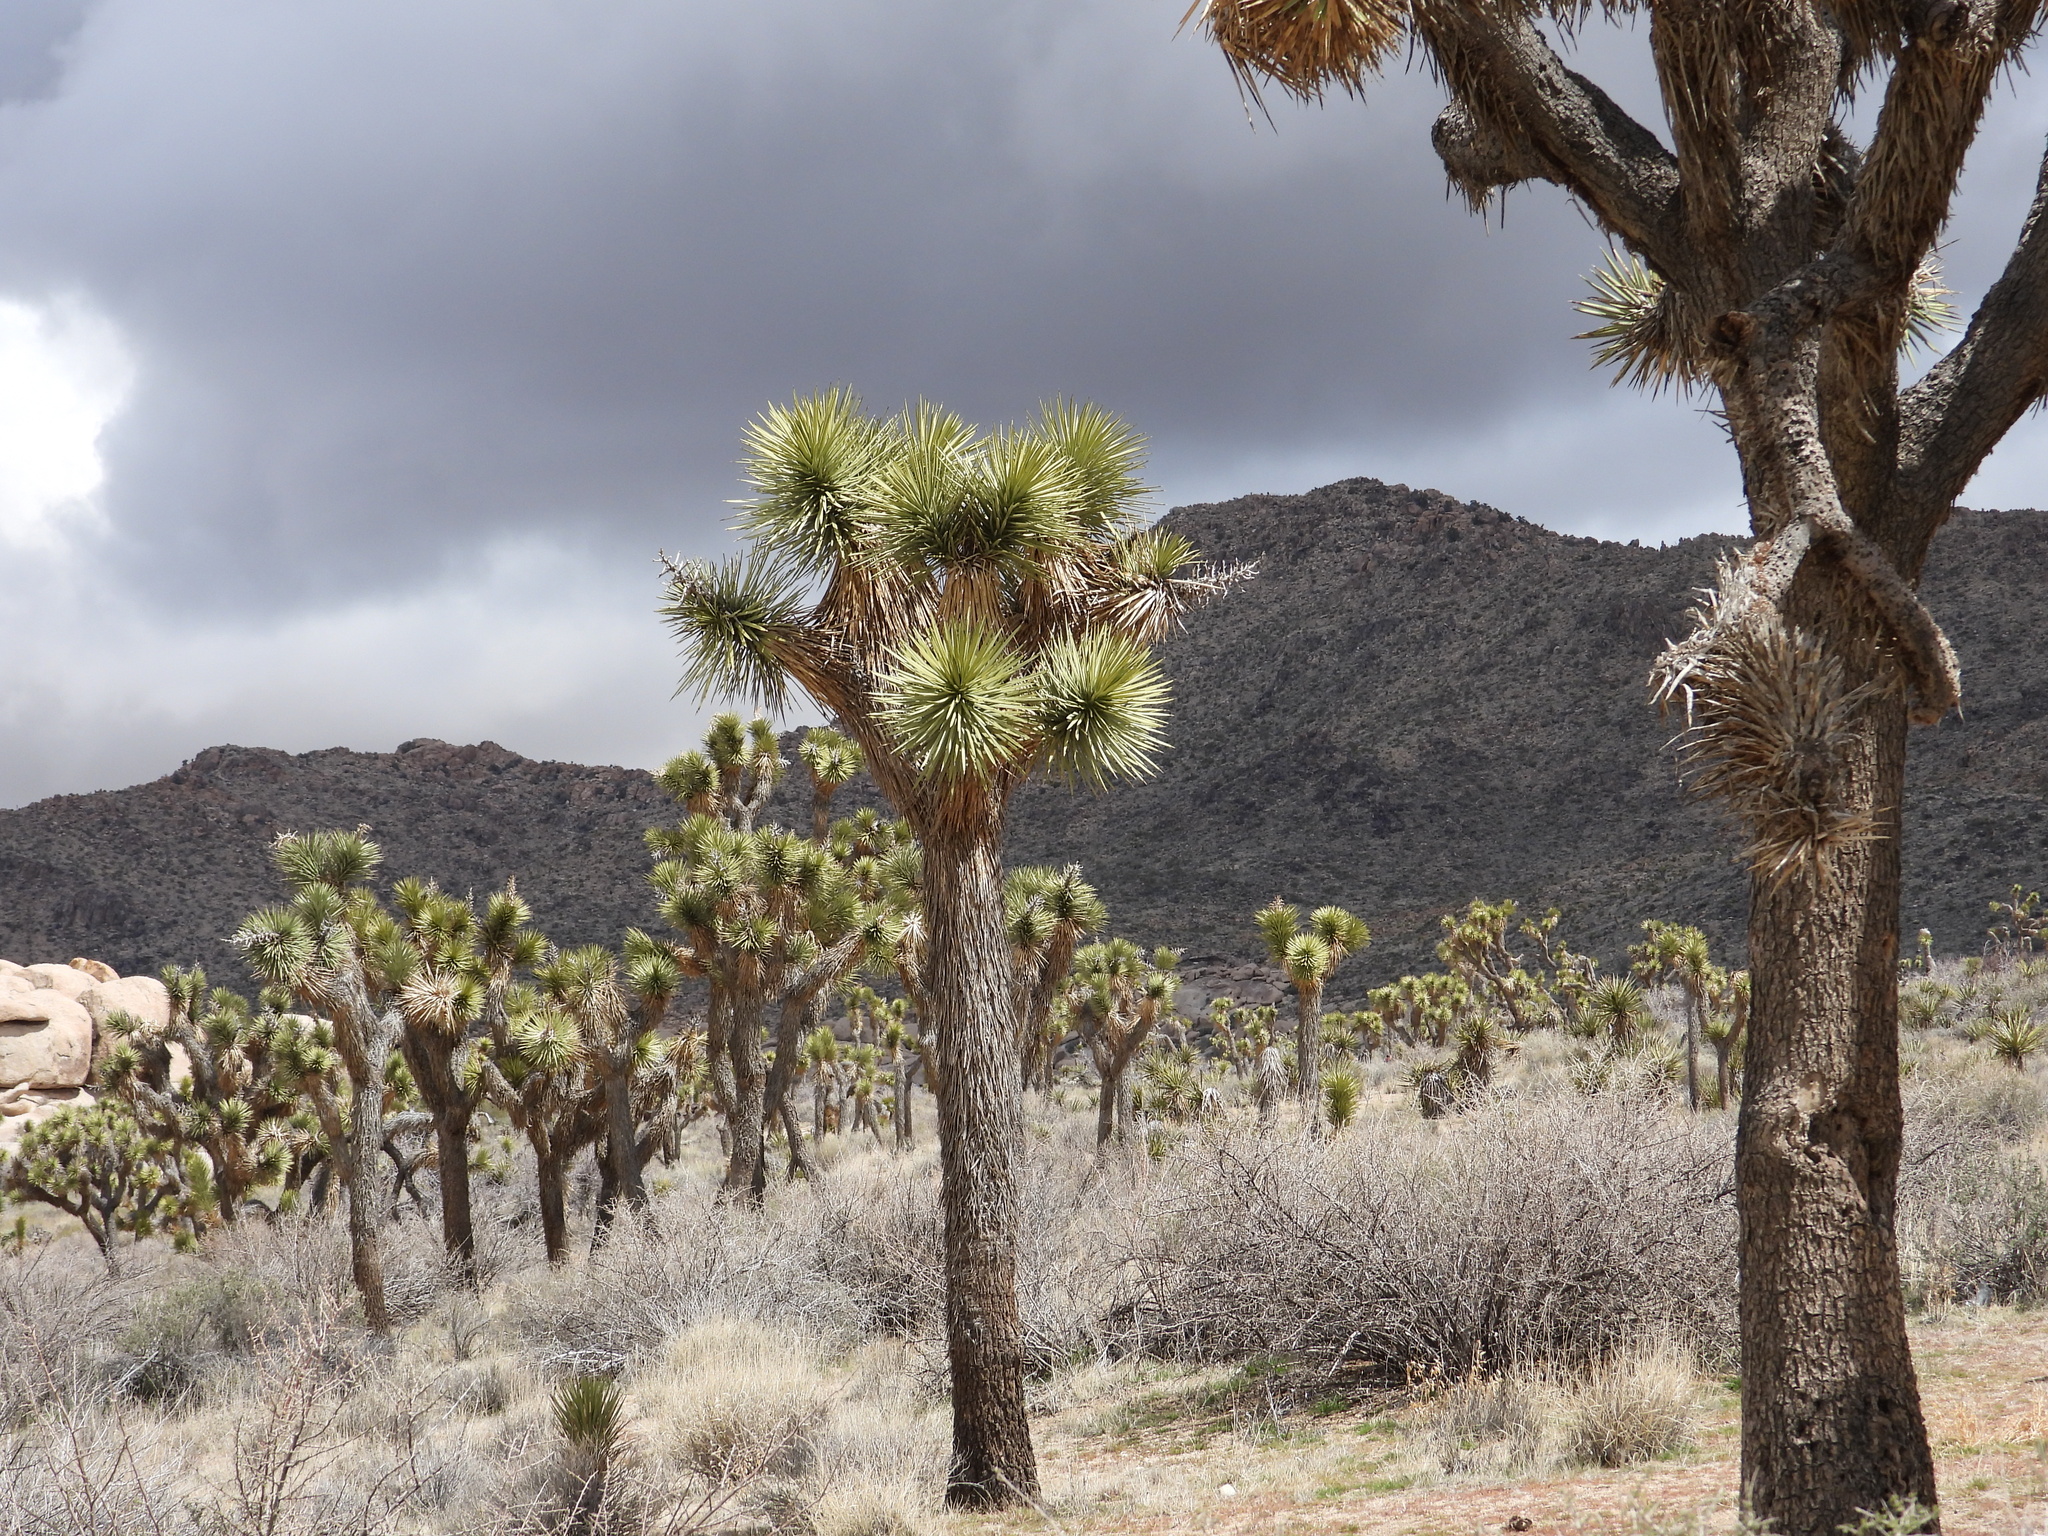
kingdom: Plantae
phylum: Tracheophyta
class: Liliopsida
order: Asparagales
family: Asparagaceae
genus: Yucca
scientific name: Yucca brevifolia
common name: Joshua tree
